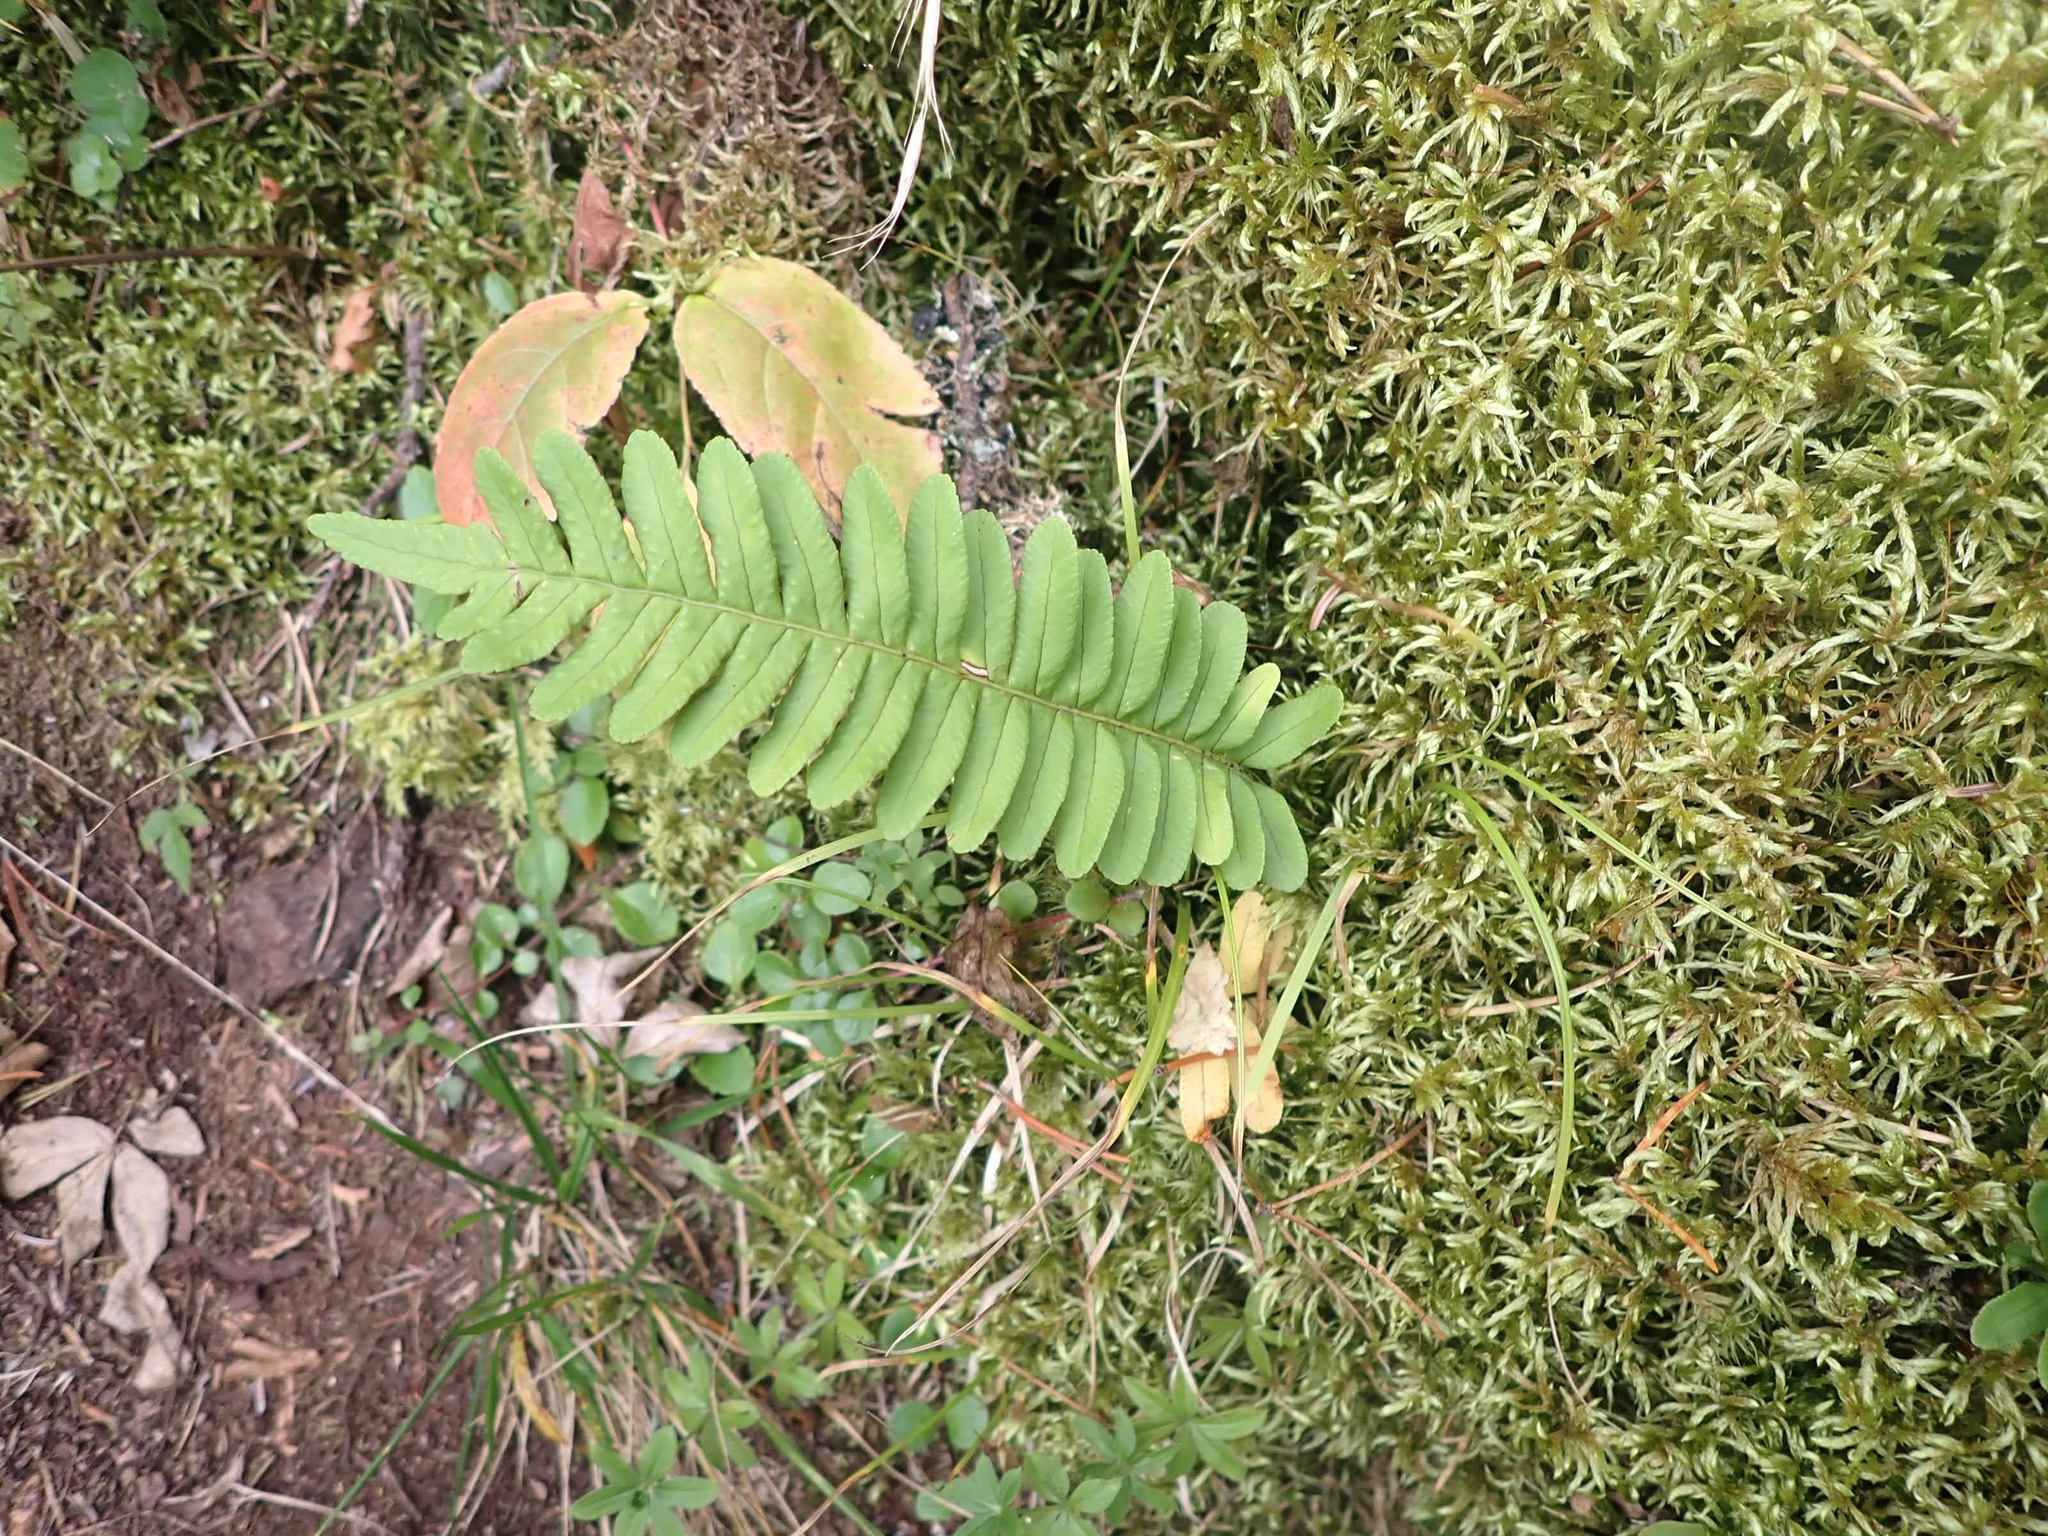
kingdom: Plantae
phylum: Tracheophyta
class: Polypodiopsida
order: Polypodiales
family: Polypodiaceae
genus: Polypodium
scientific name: Polypodium virginianum
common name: American wall fern
